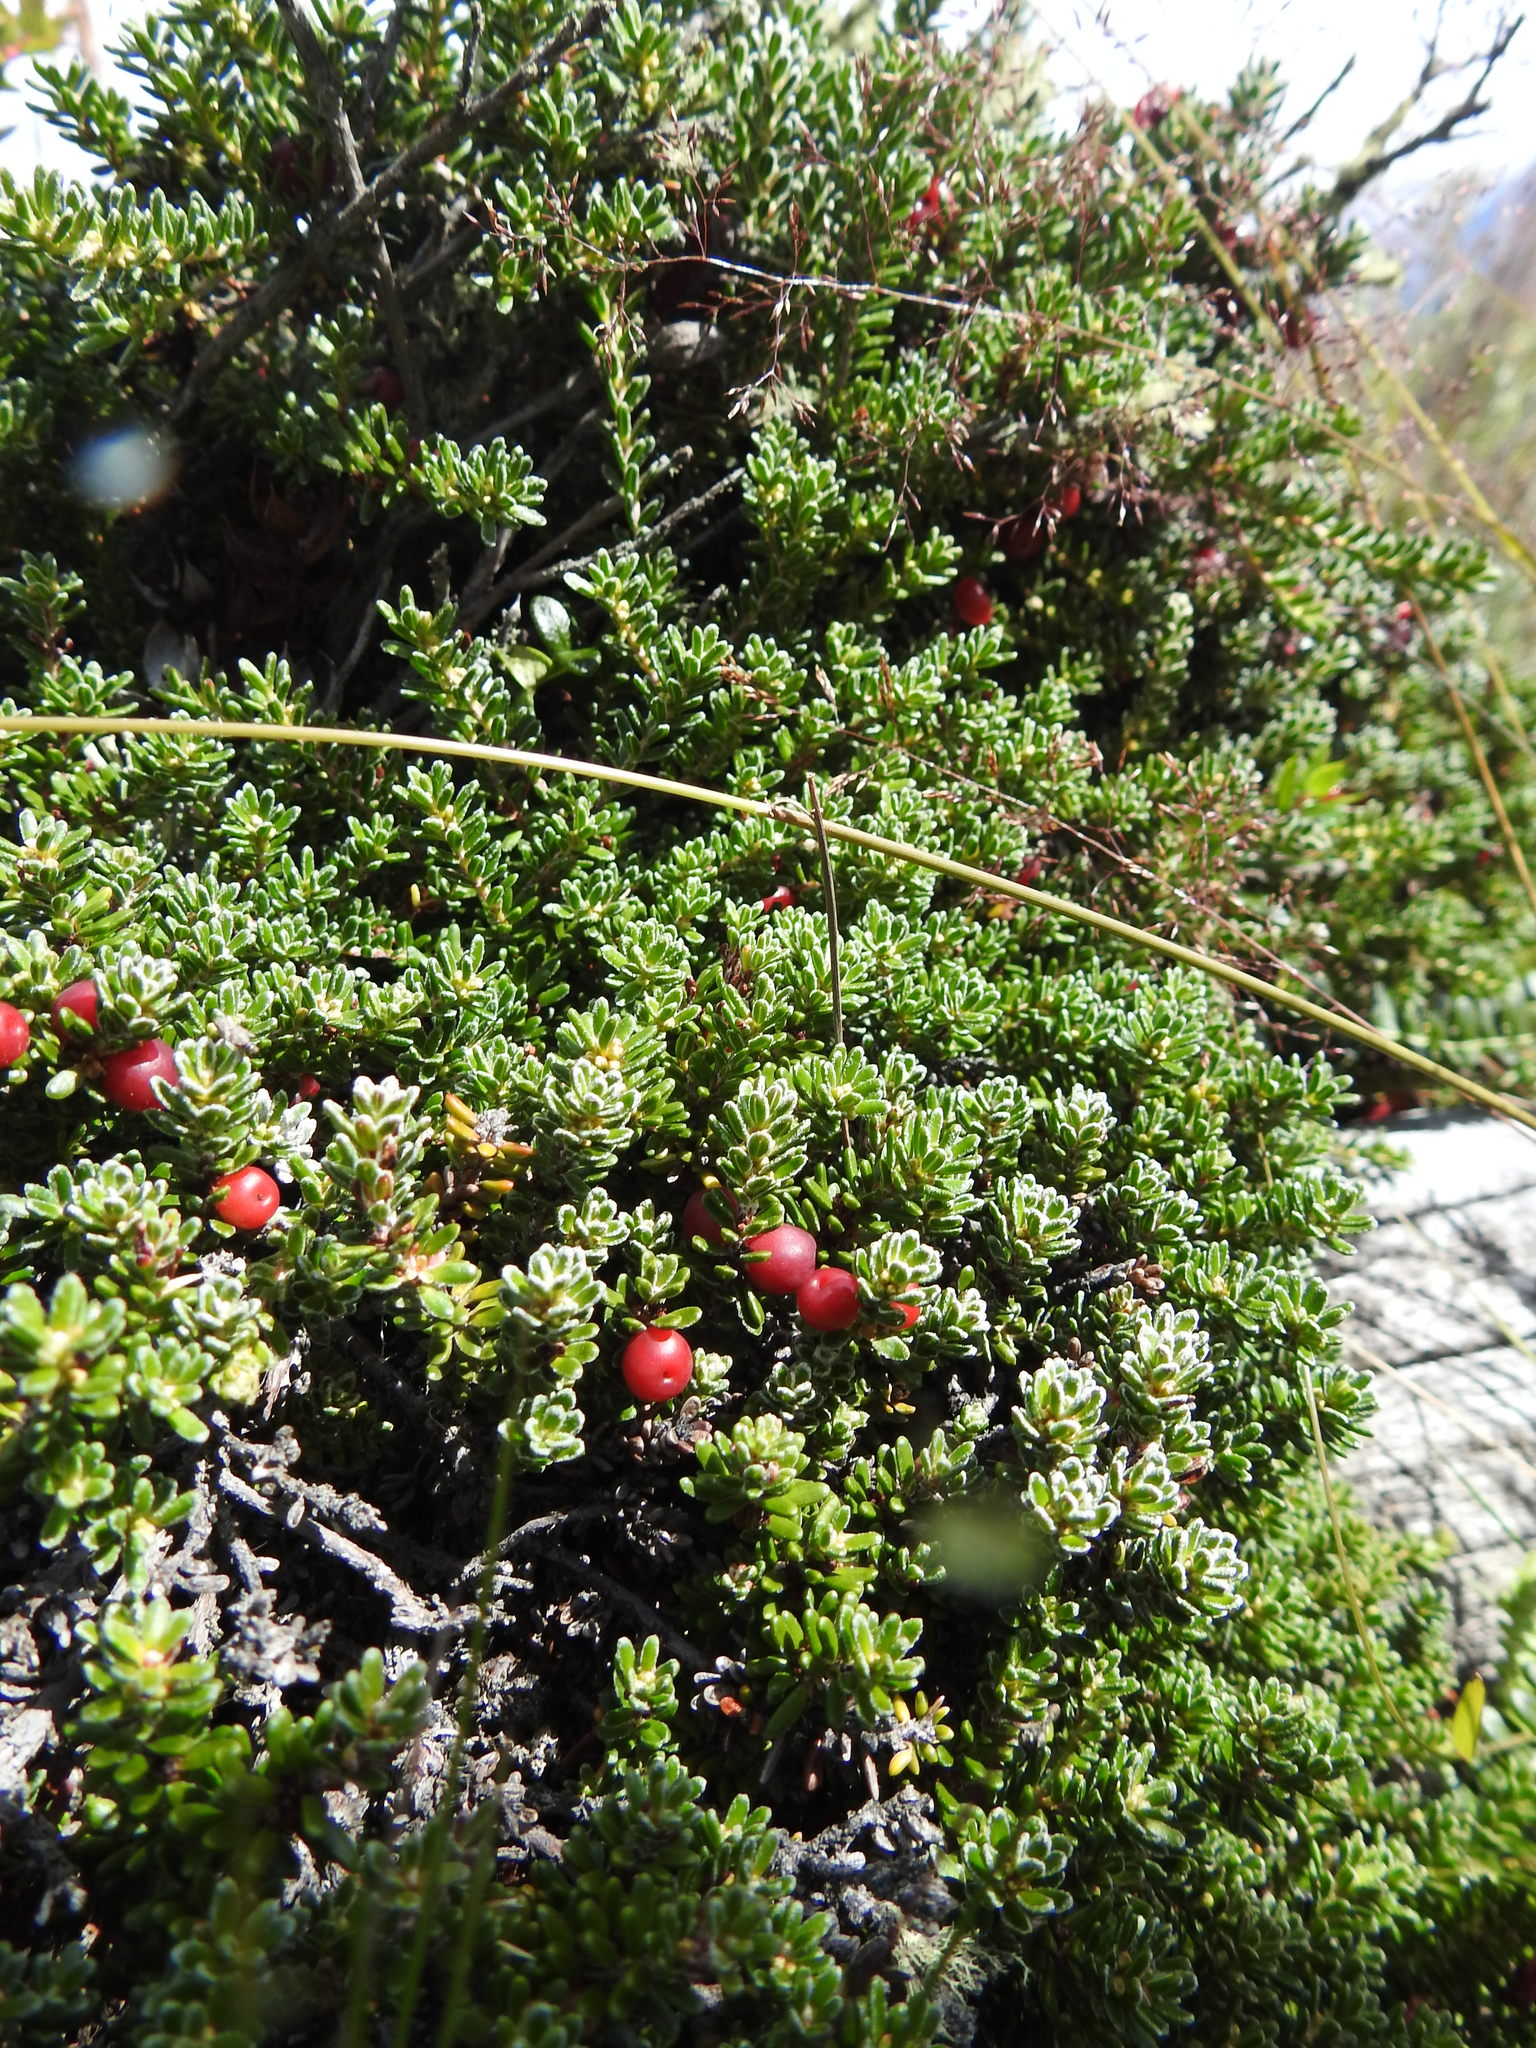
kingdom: Plantae
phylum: Tracheophyta
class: Magnoliopsida
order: Ericales
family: Ericaceae
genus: Empetrum
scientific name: Empetrum rubrum
